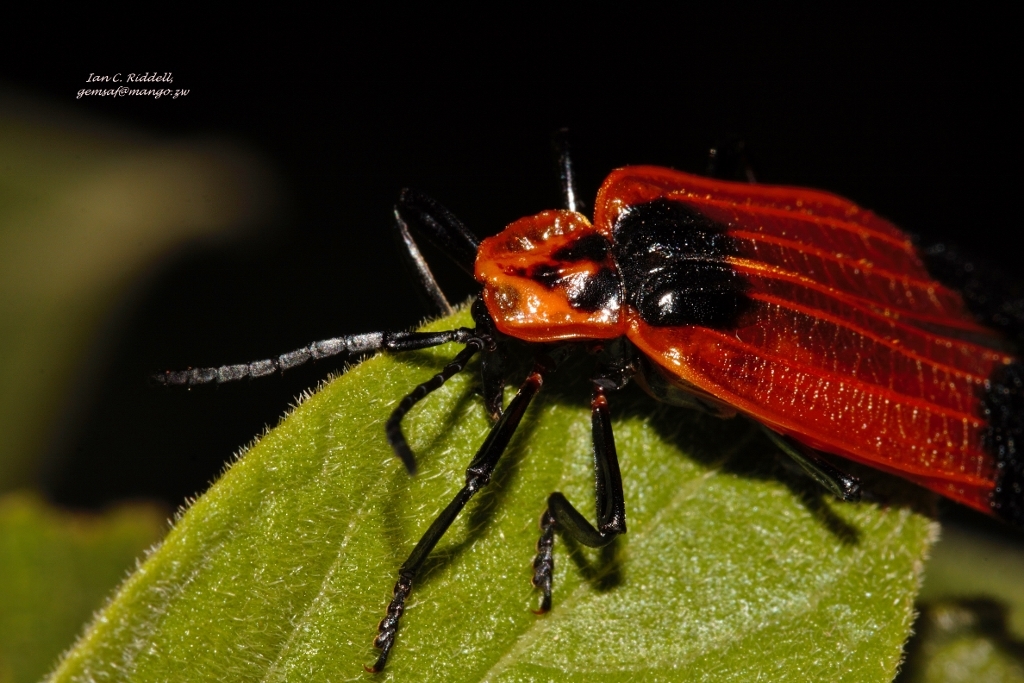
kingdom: Animalia
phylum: Arthropoda
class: Insecta
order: Coleoptera
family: Lycidae
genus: Lycus
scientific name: Lycus
